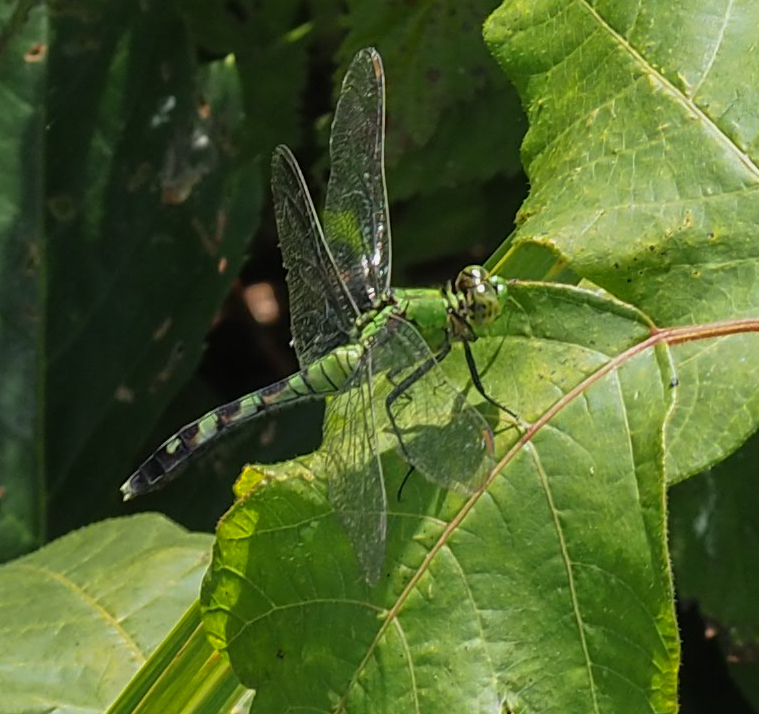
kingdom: Animalia
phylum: Arthropoda
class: Insecta
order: Odonata
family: Libellulidae
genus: Erythemis
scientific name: Erythemis simplicicollis
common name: Eastern pondhawk
